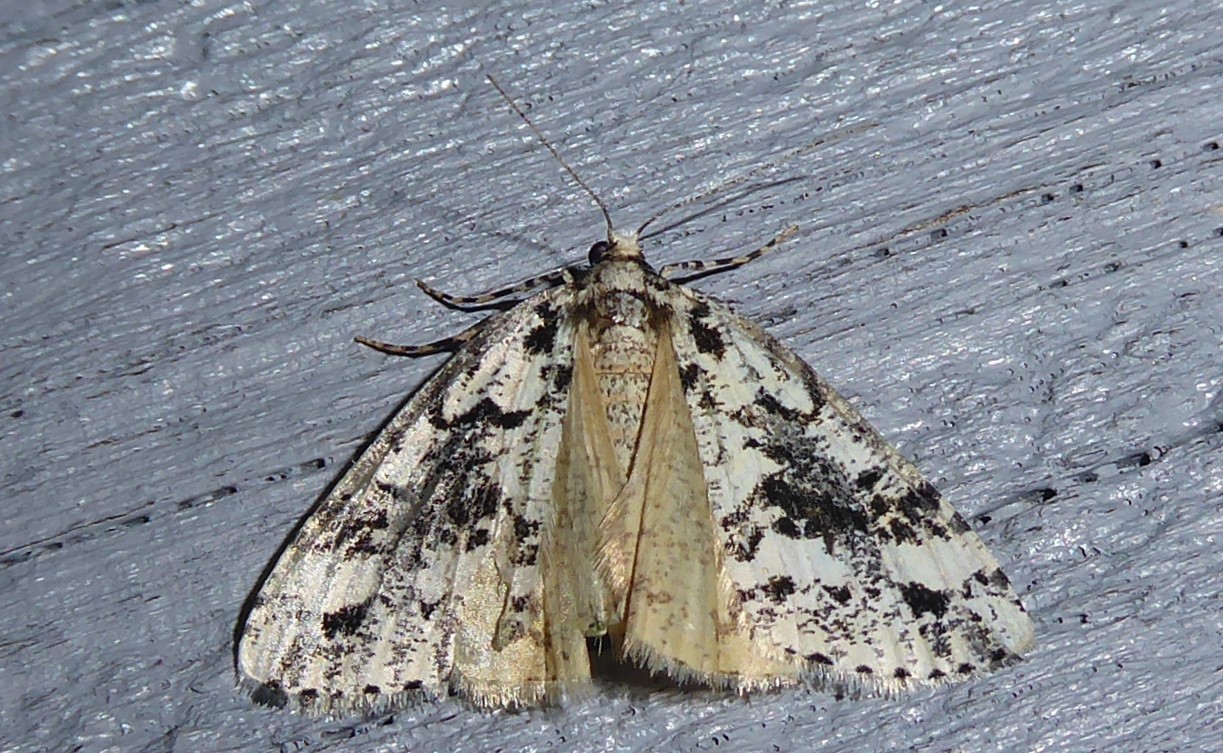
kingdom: Animalia
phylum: Arthropoda
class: Insecta
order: Lepidoptera
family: Geometridae
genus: Pseudocoremia
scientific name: Pseudocoremia leucelaea
